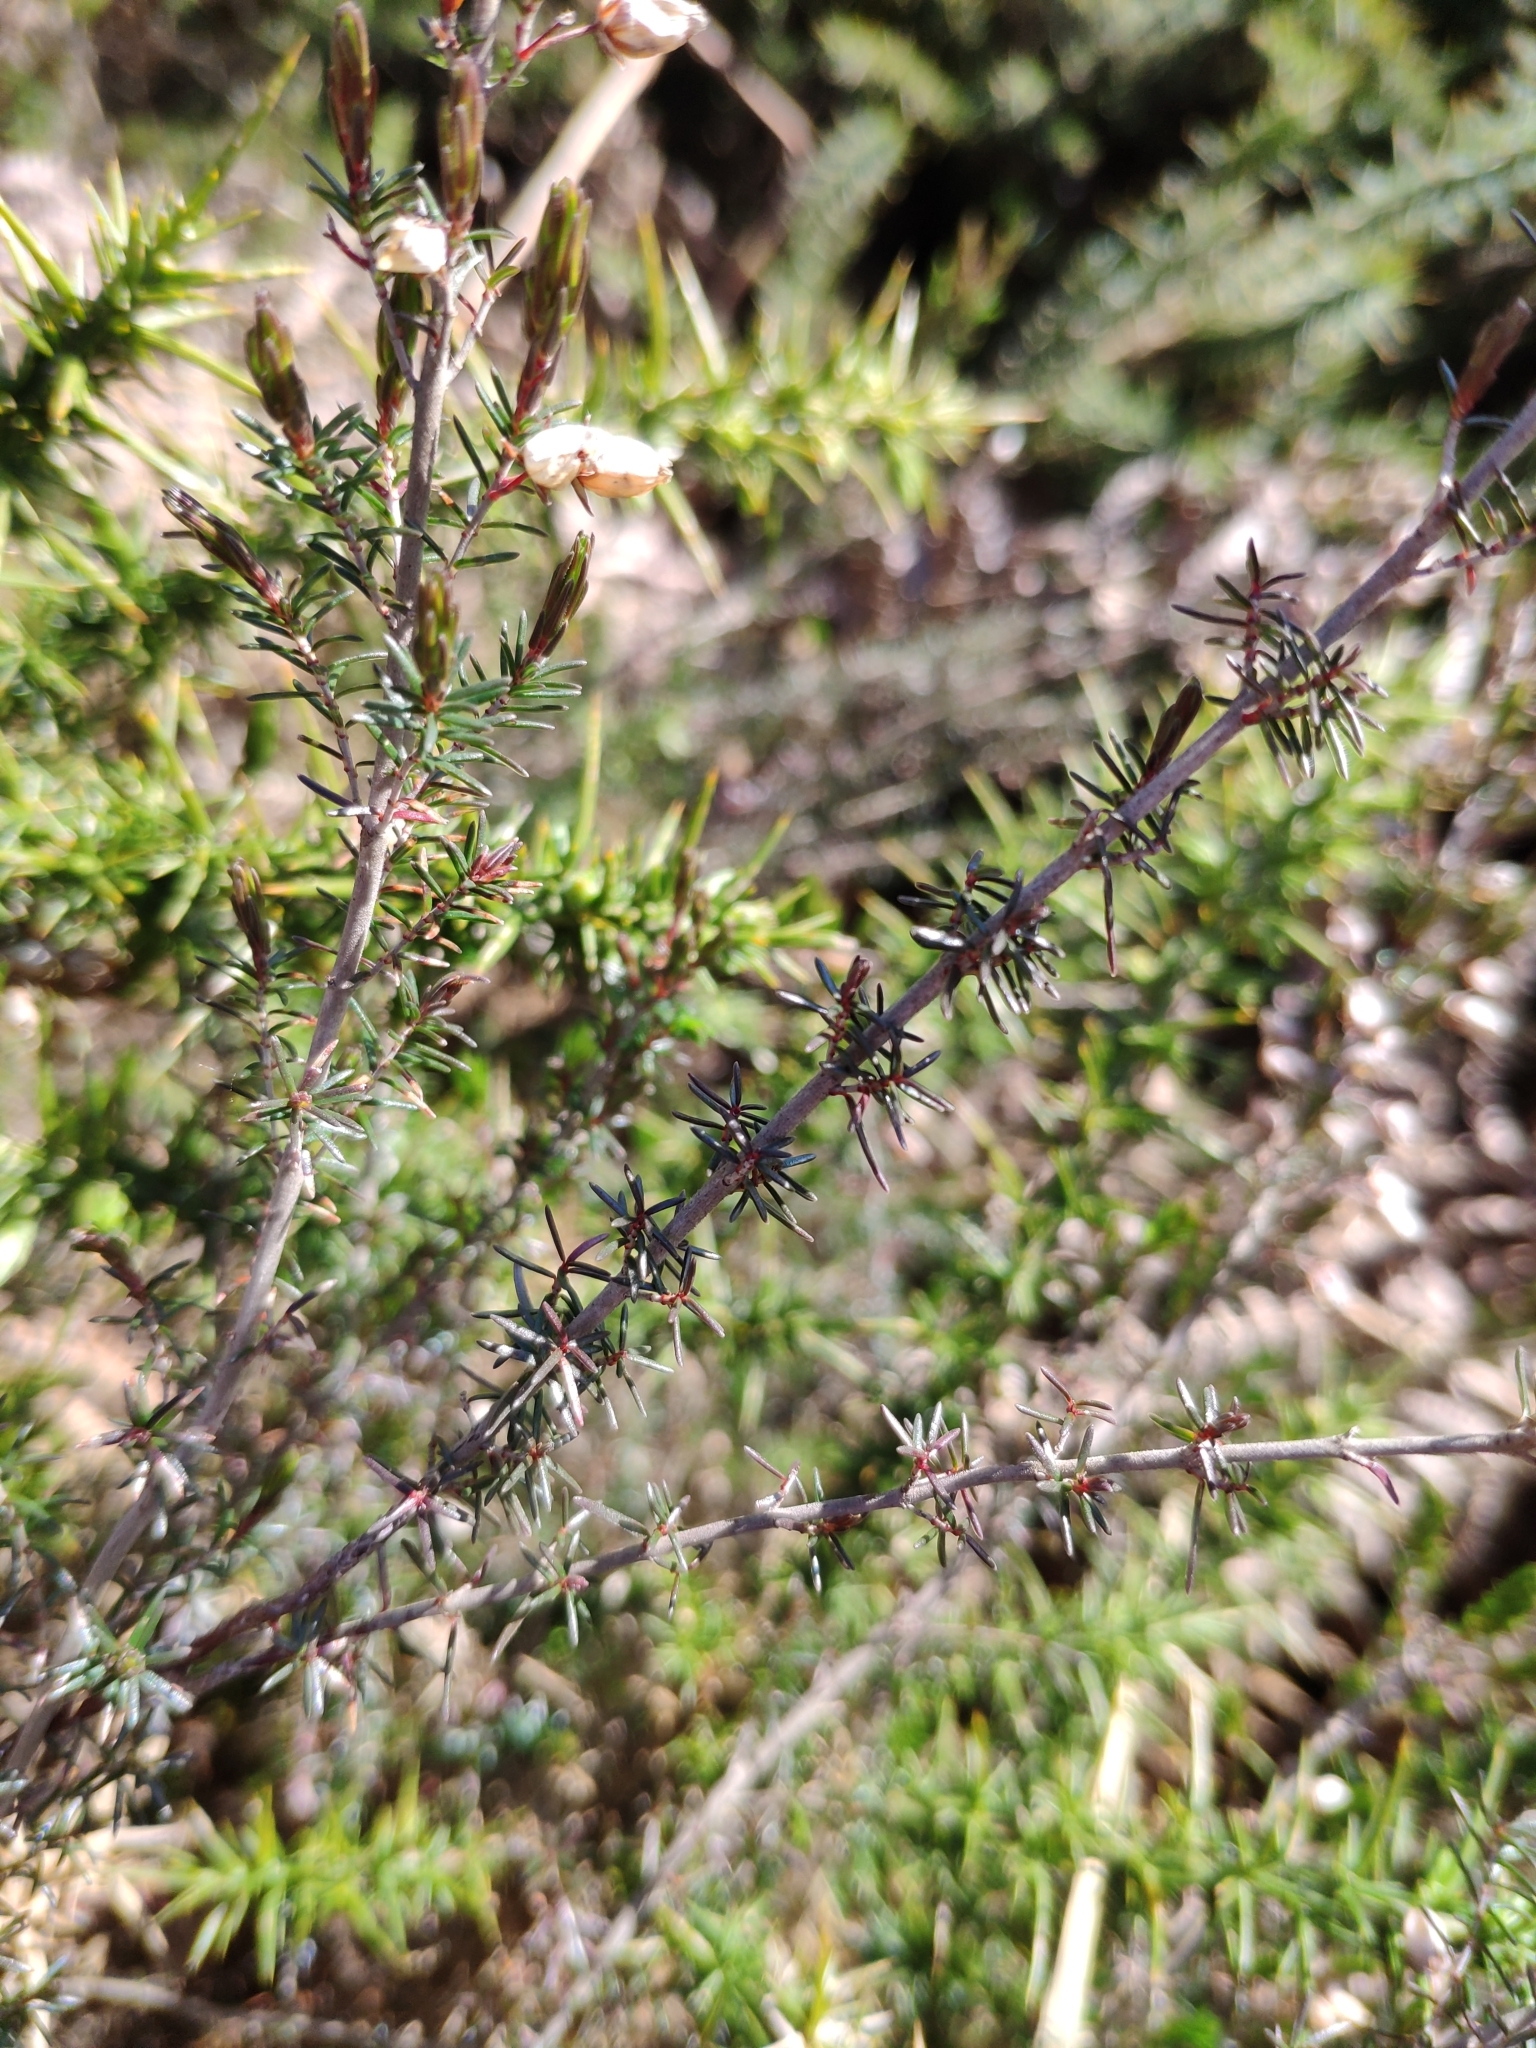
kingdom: Plantae
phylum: Tracheophyta
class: Magnoliopsida
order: Ericales
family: Ericaceae
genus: Erica
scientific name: Erica cinerea
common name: Bell heather
